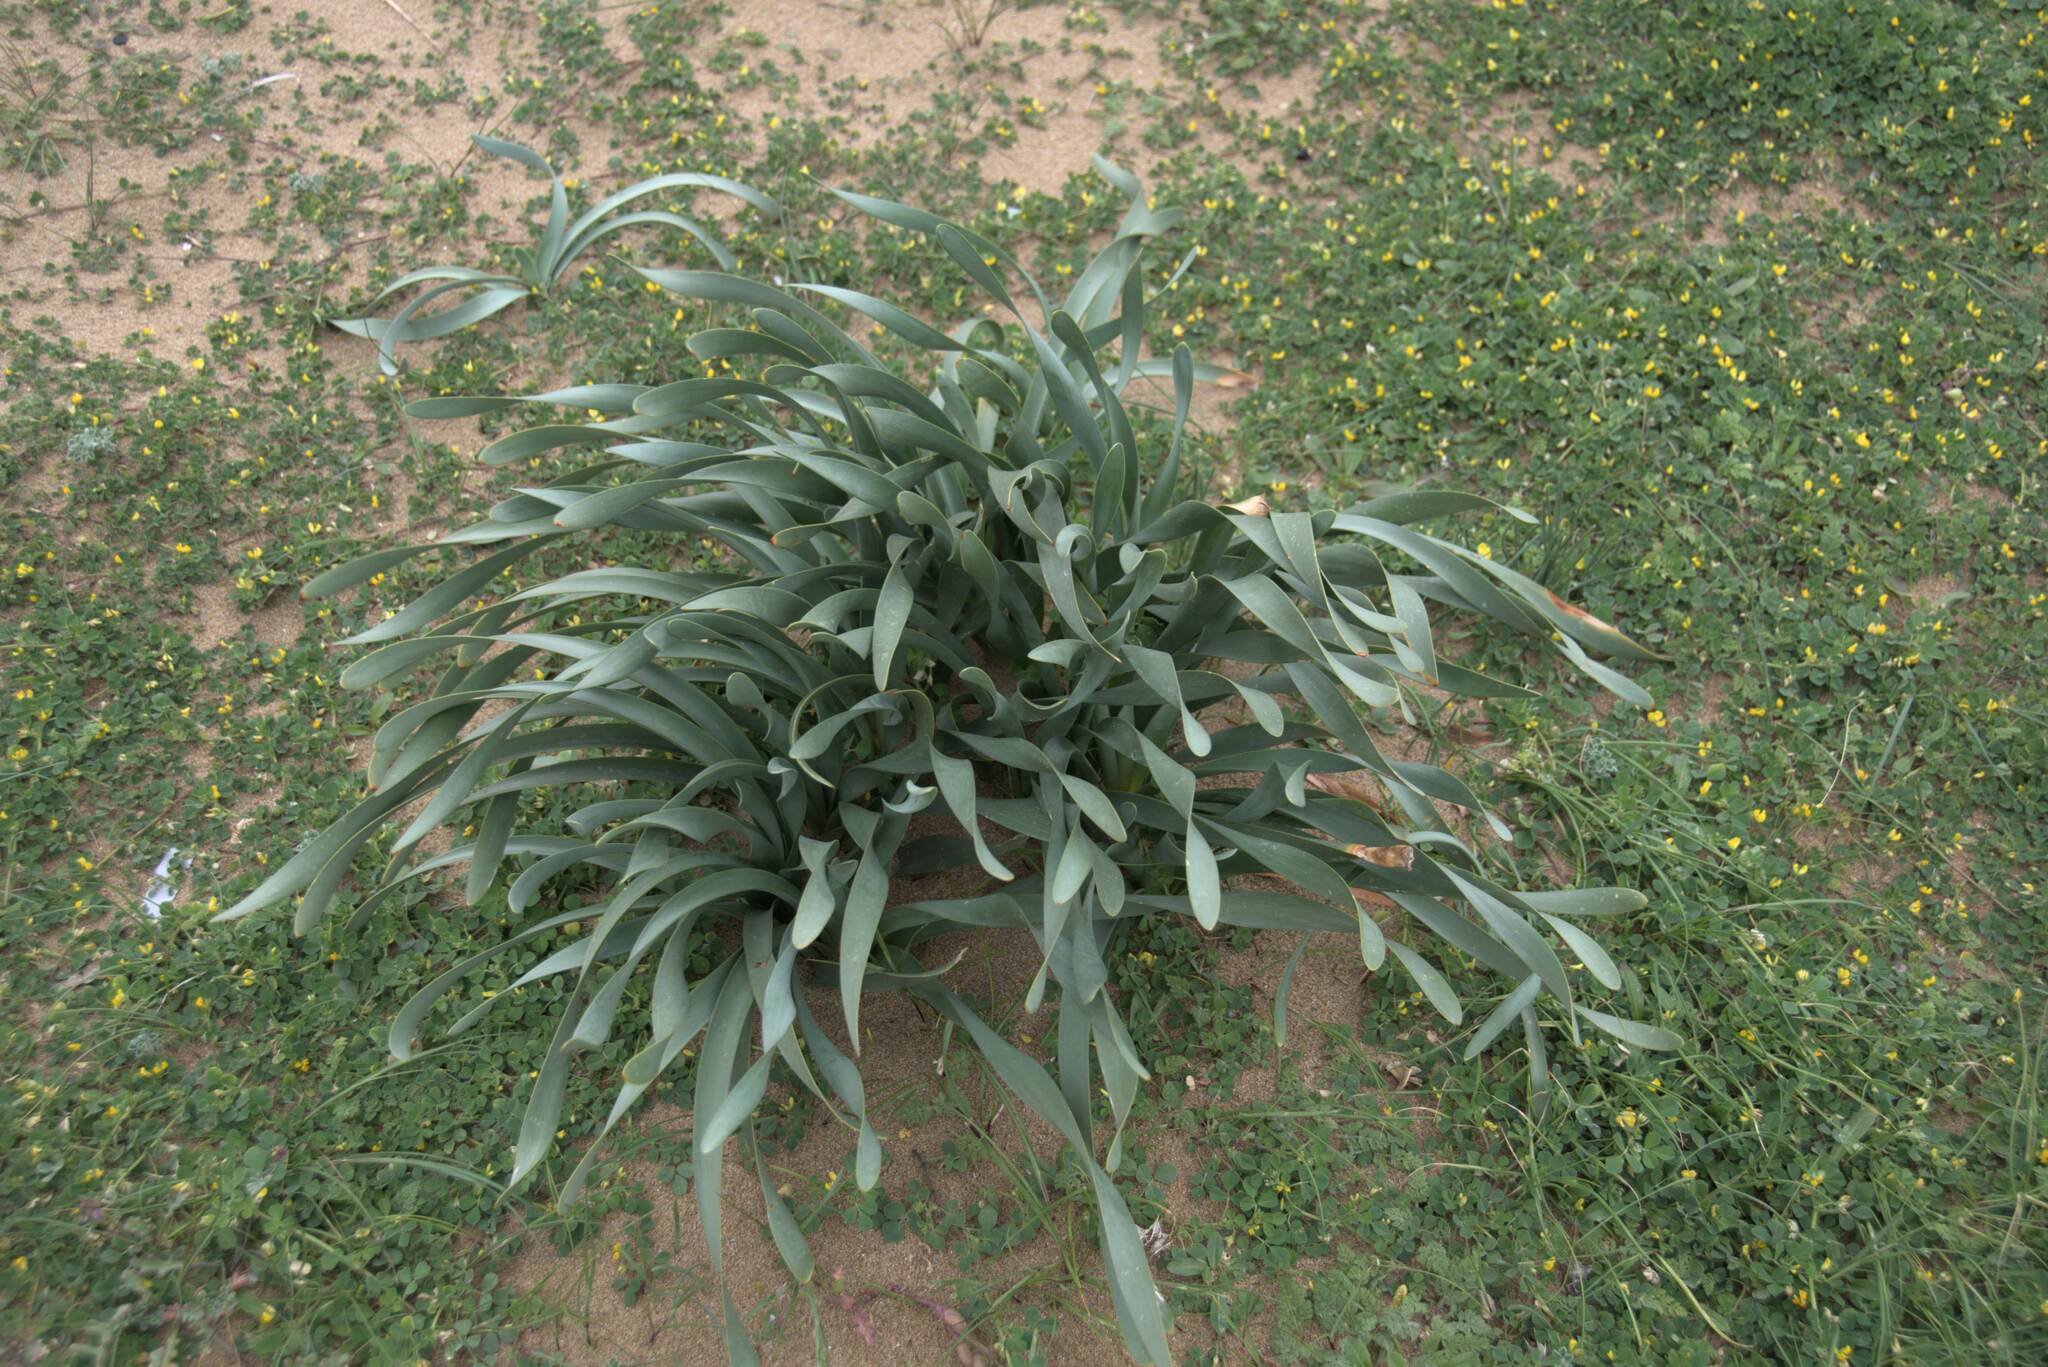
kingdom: Plantae
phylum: Tracheophyta
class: Liliopsida
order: Asparagales
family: Amaryllidaceae
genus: Pancratium
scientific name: Pancratium maritimum
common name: Sea-daffodil
